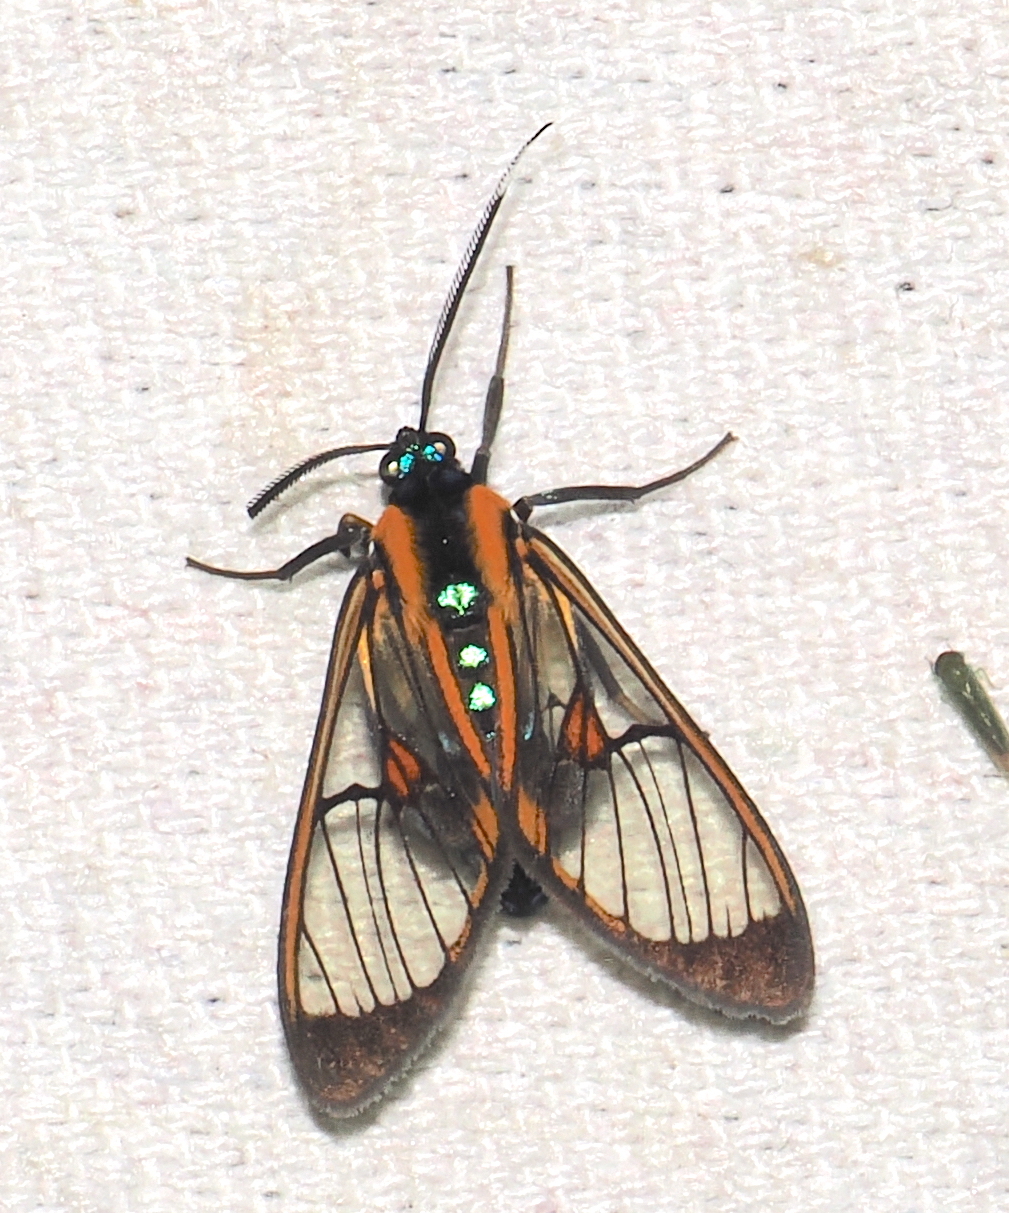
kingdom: Animalia
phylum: Arthropoda
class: Insecta
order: Lepidoptera
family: Erebidae
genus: Cosmosoma
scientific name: Cosmosoma centralis
